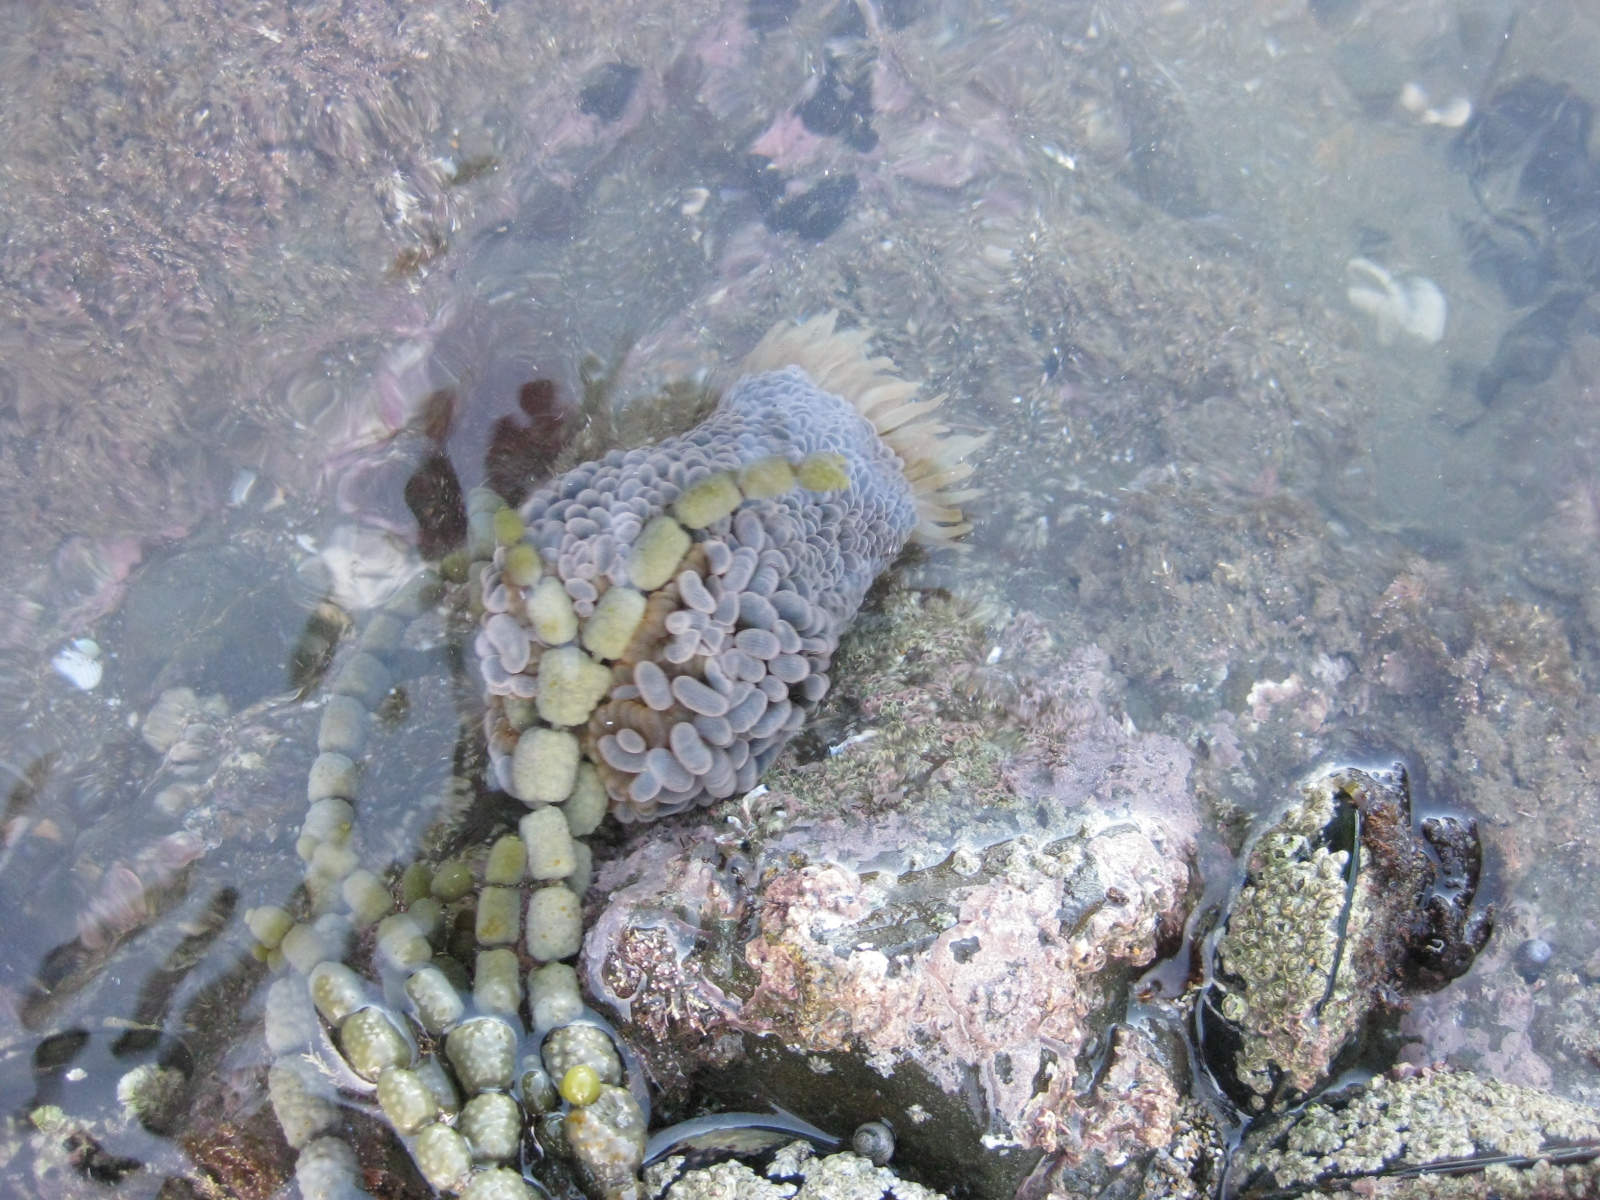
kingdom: Animalia
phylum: Cnidaria
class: Anthozoa
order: Actiniaria
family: Actiniidae
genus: Phlyctenactis
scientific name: Phlyctenactis tuberculosa
